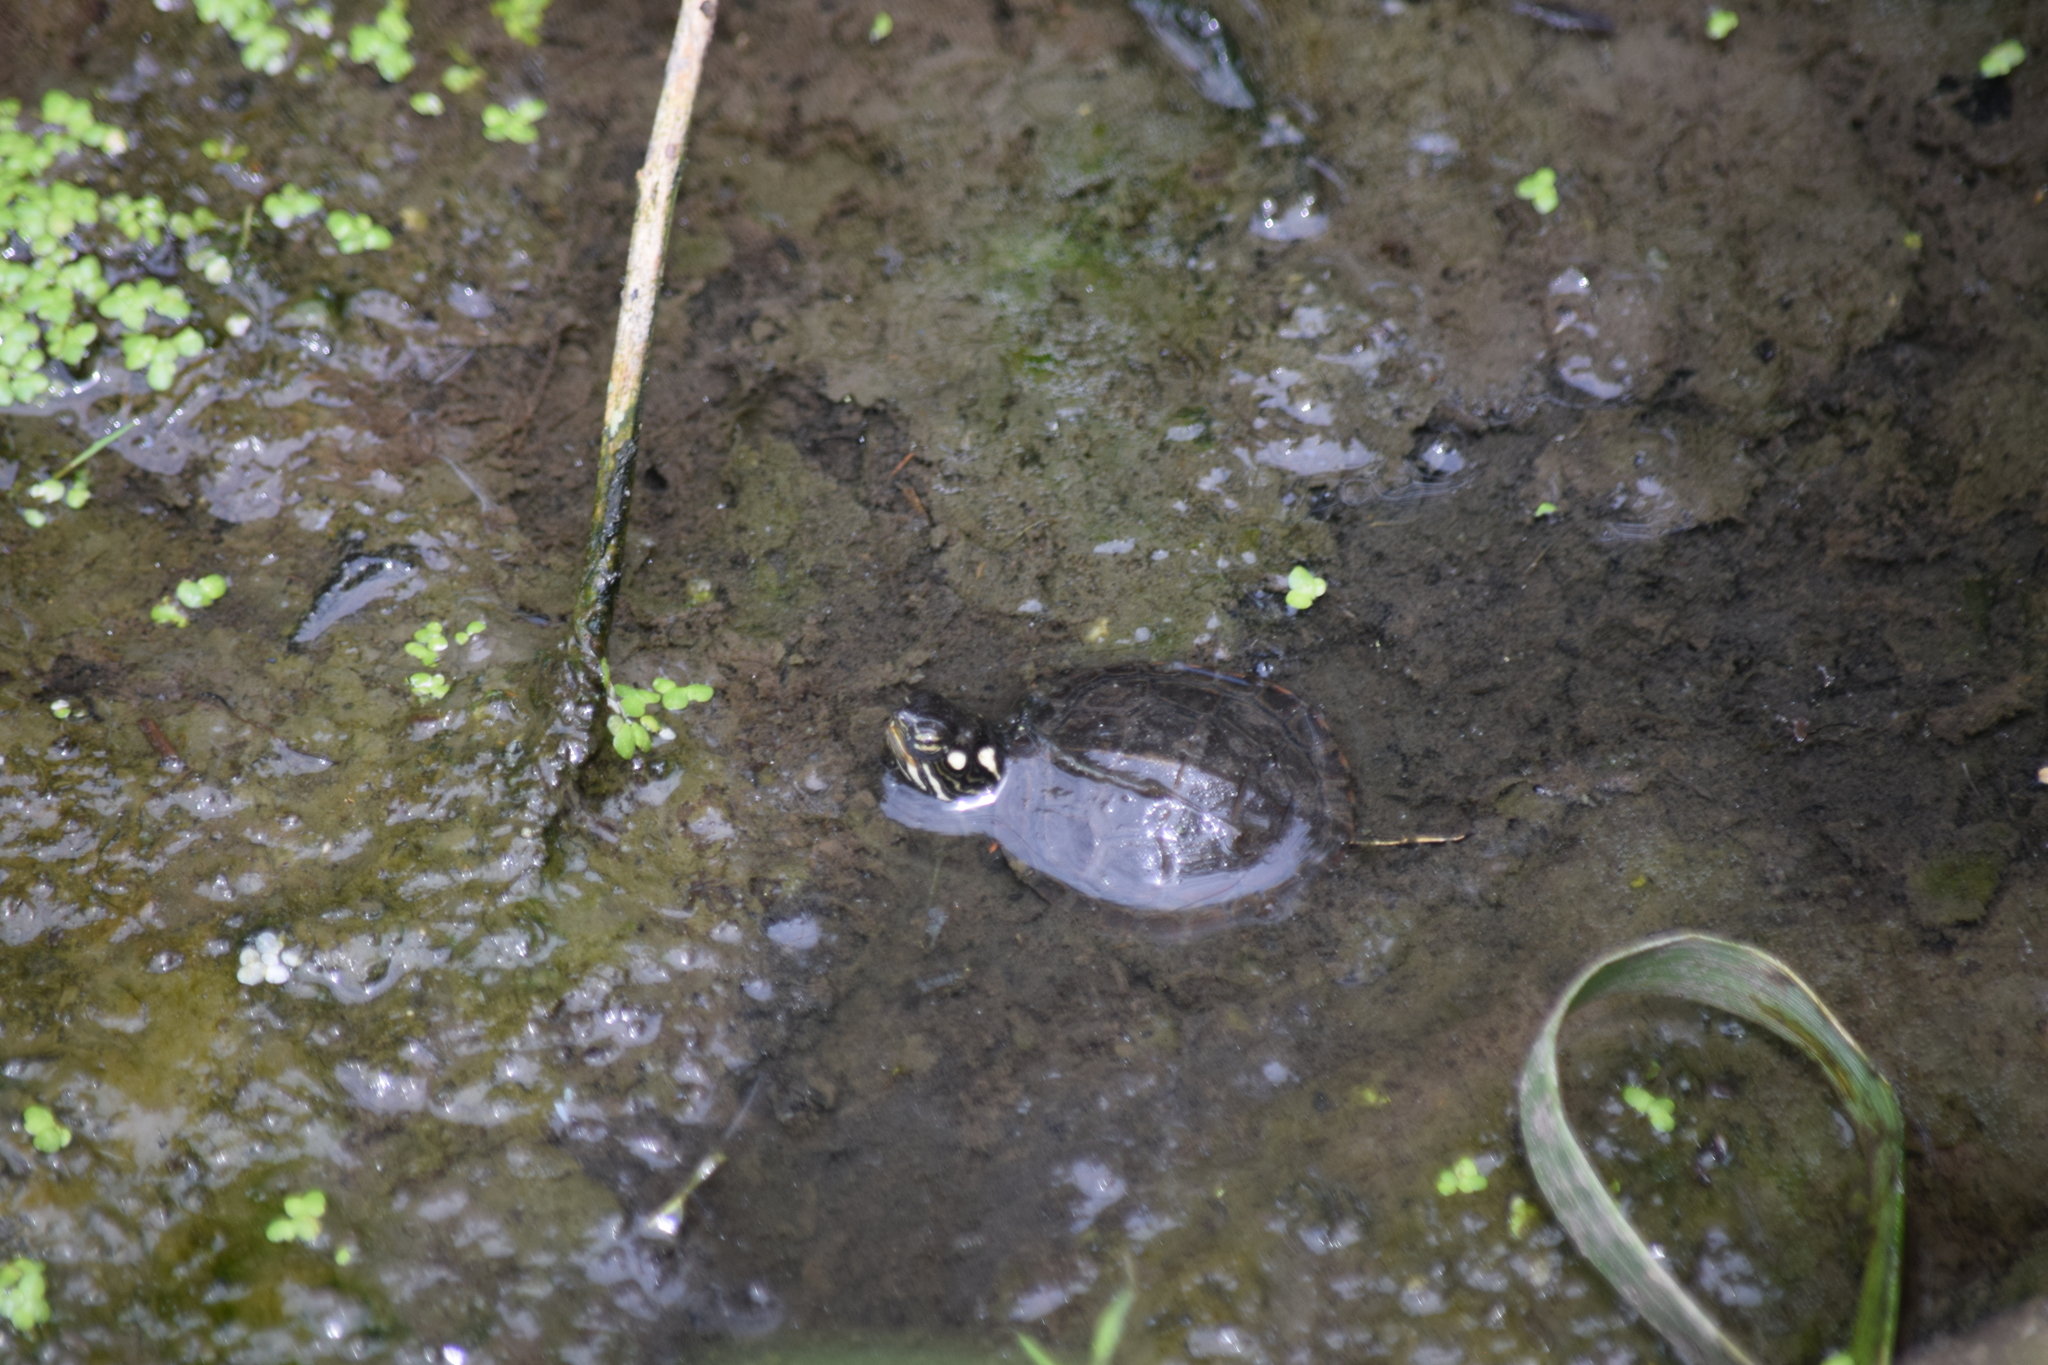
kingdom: Animalia
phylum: Chordata
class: Testudines
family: Emydidae
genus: Chrysemys
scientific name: Chrysemys picta
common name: Painted turtle
